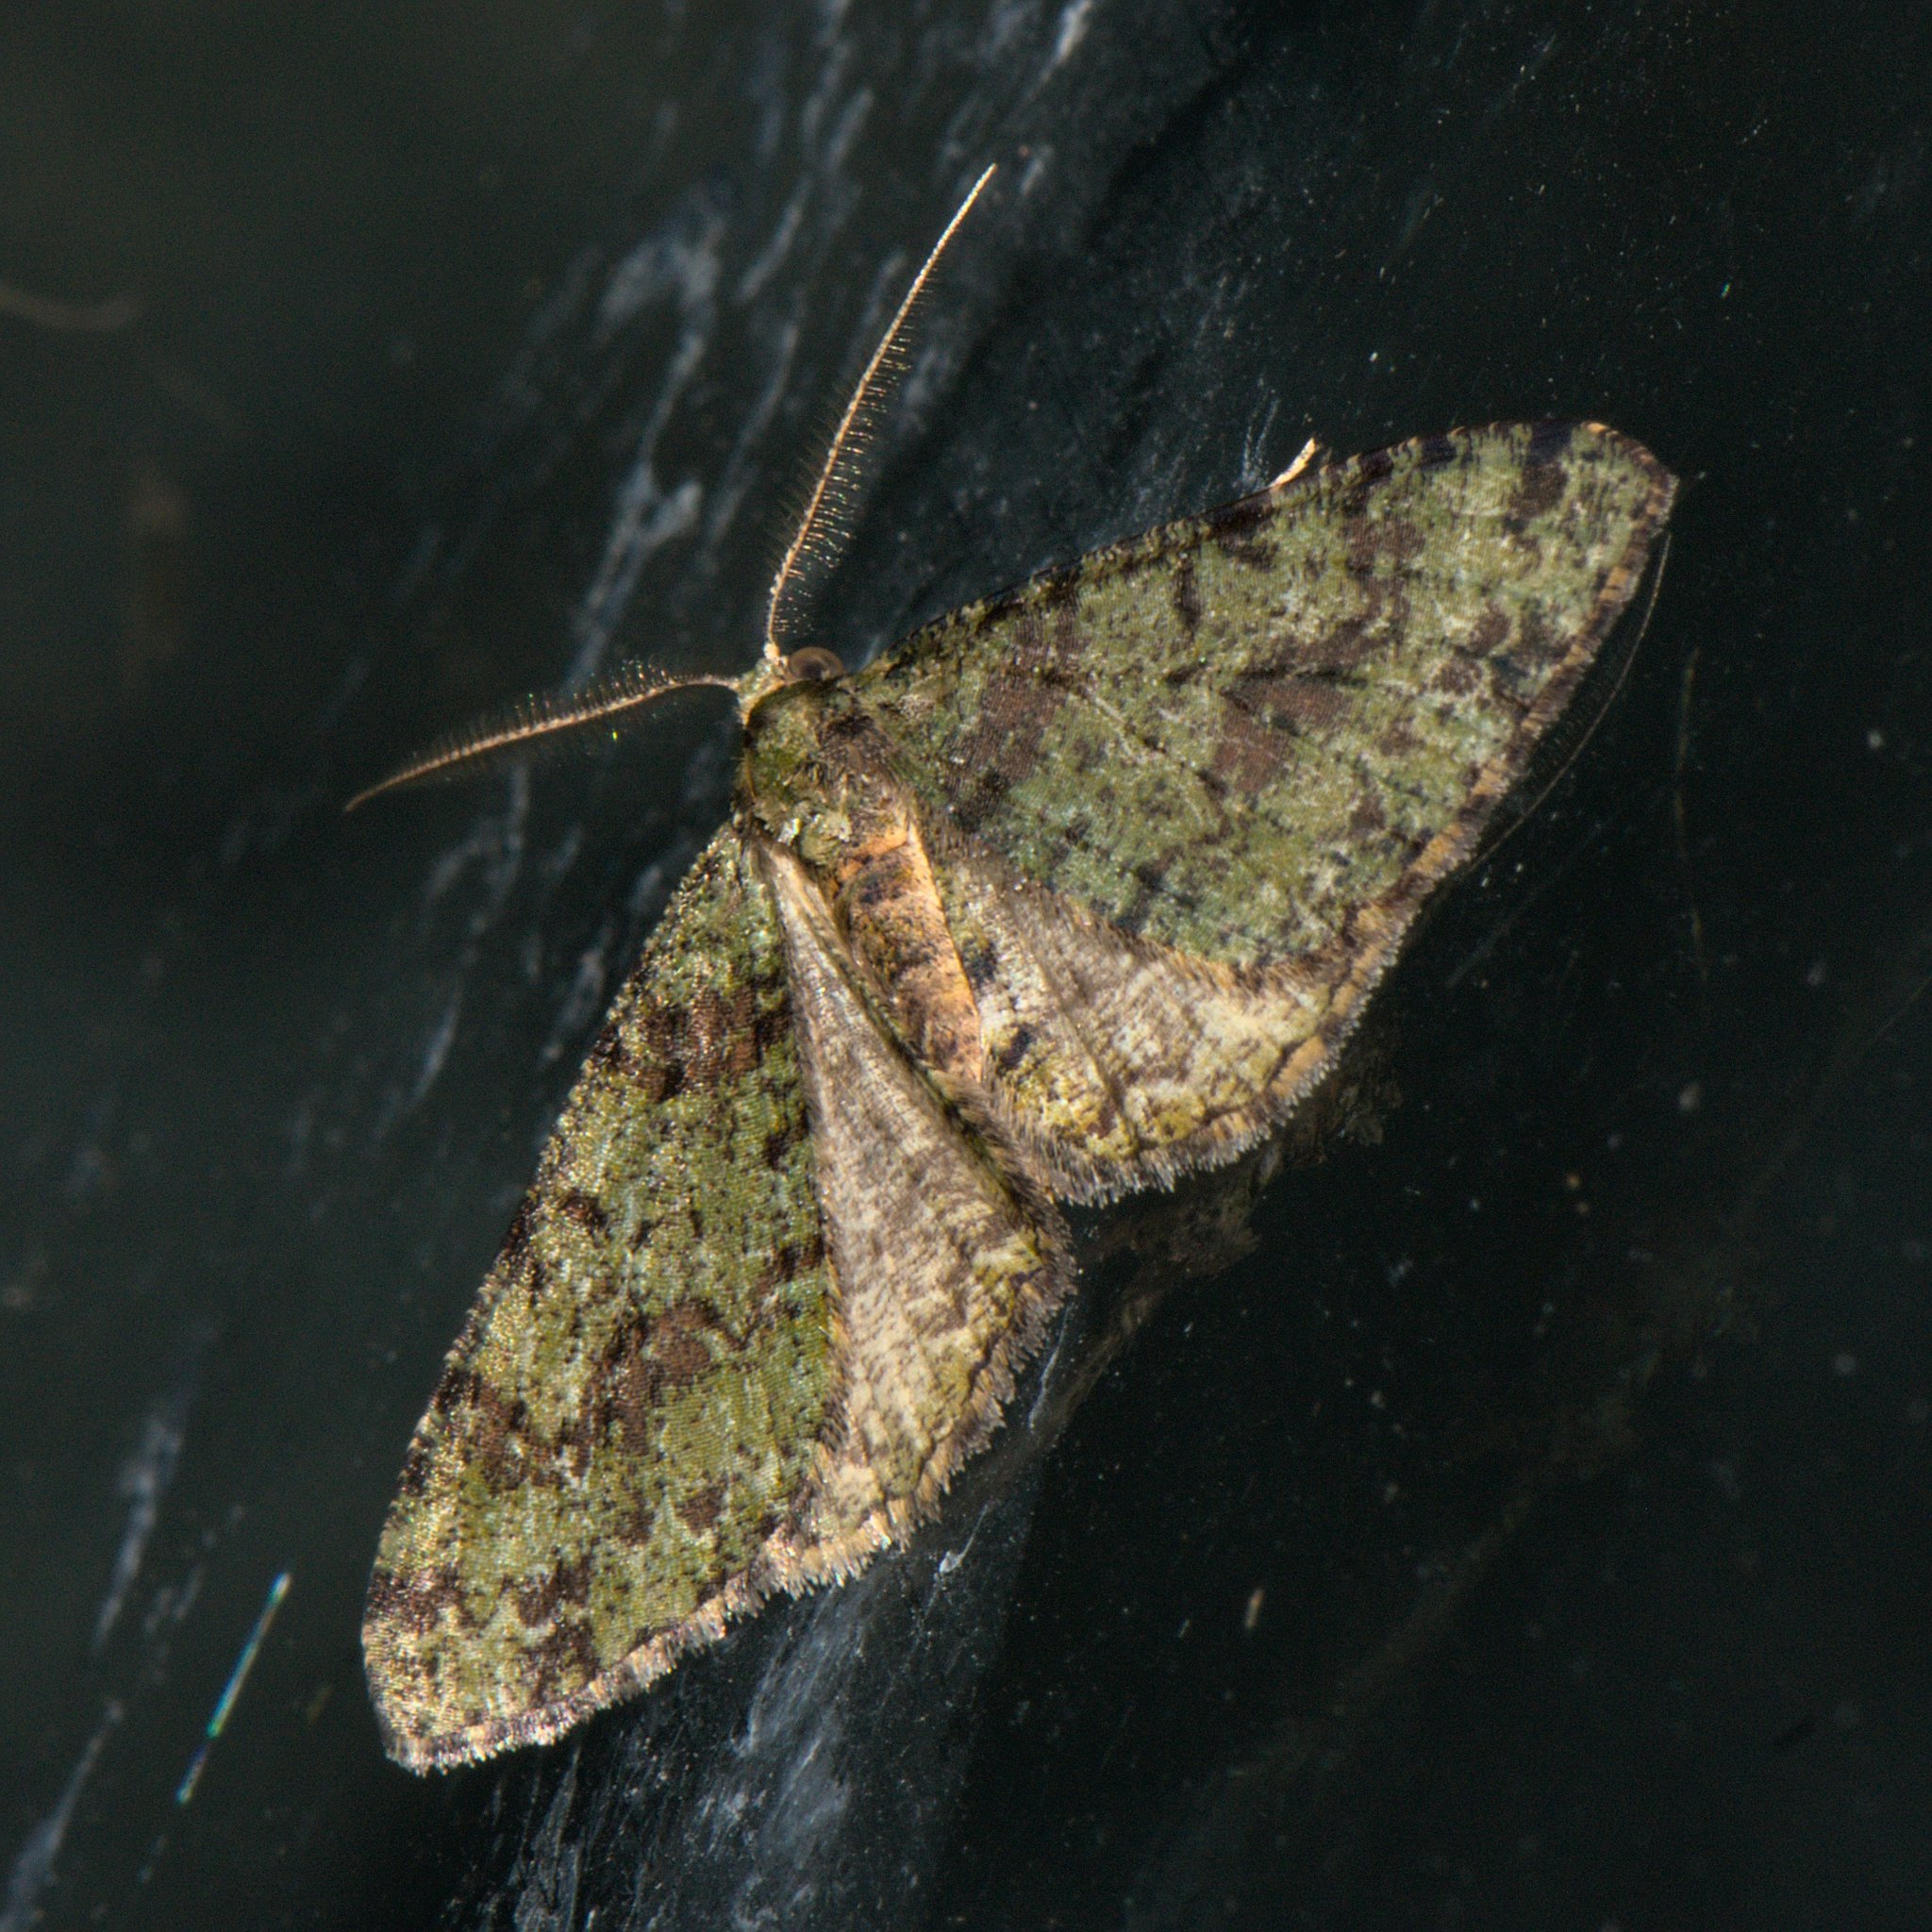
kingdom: Animalia
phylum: Arthropoda
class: Insecta
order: Lepidoptera
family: Geometridae
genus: Myrioblephara
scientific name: Myrioblephara duplexa
